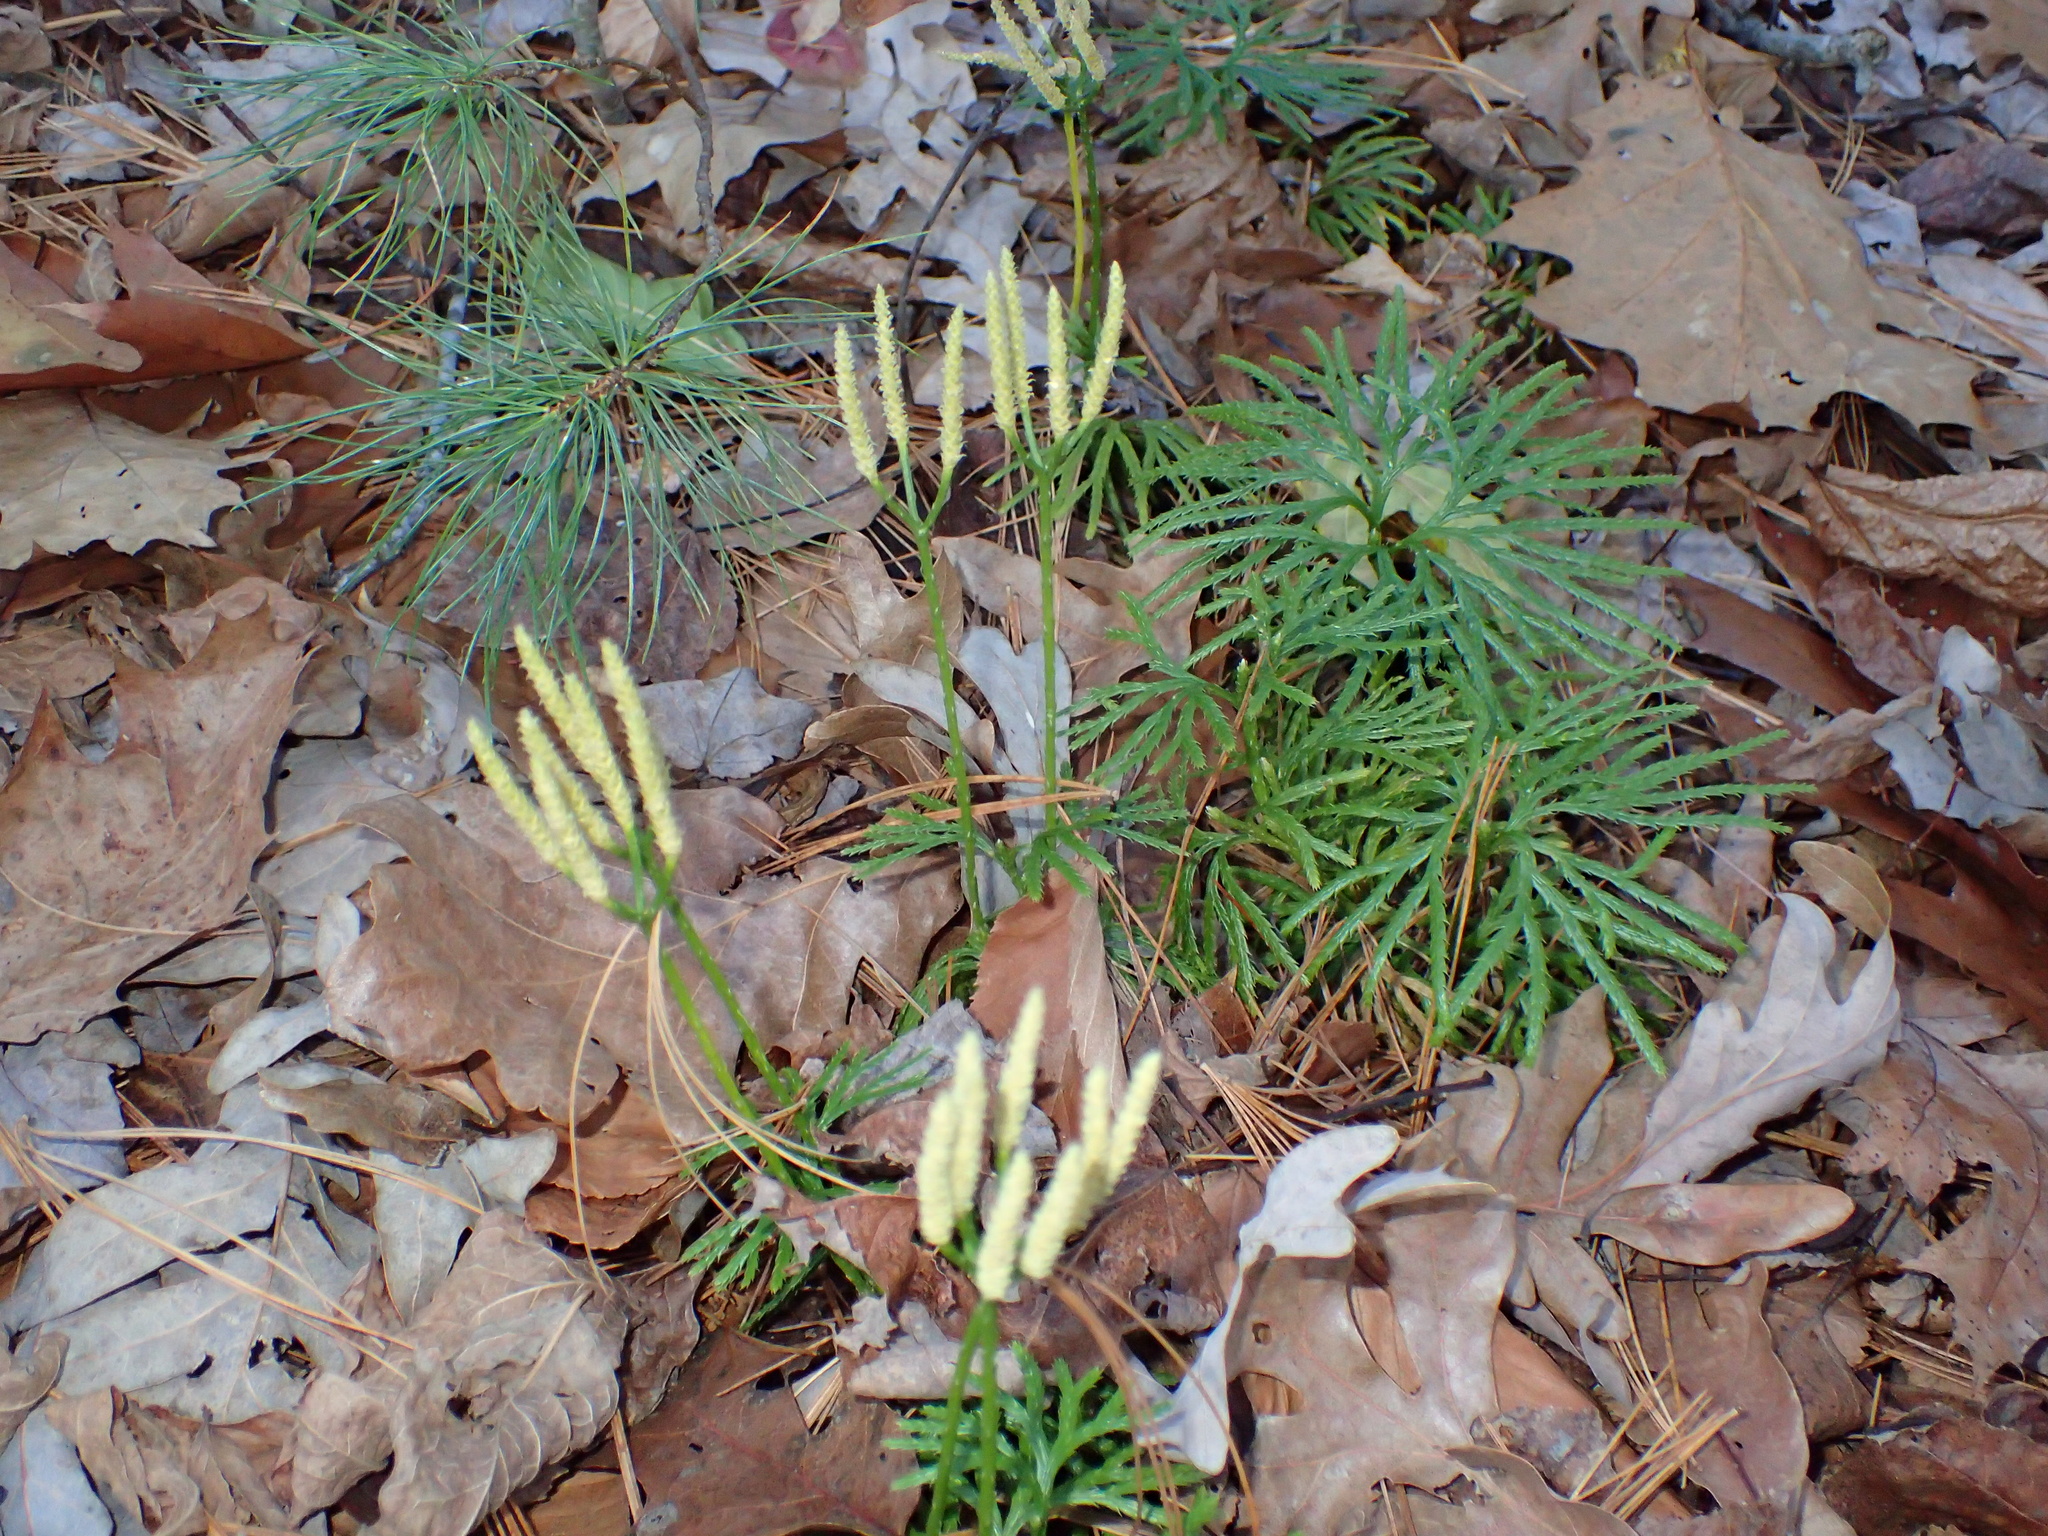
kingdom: Plantae
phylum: Tracheophyta
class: Lycopodiopsida
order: Lycopodiales
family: Lycopodiaceae
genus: Diphasiastrum
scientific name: Diphasiastrum digitatum
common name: Southern running-pine
